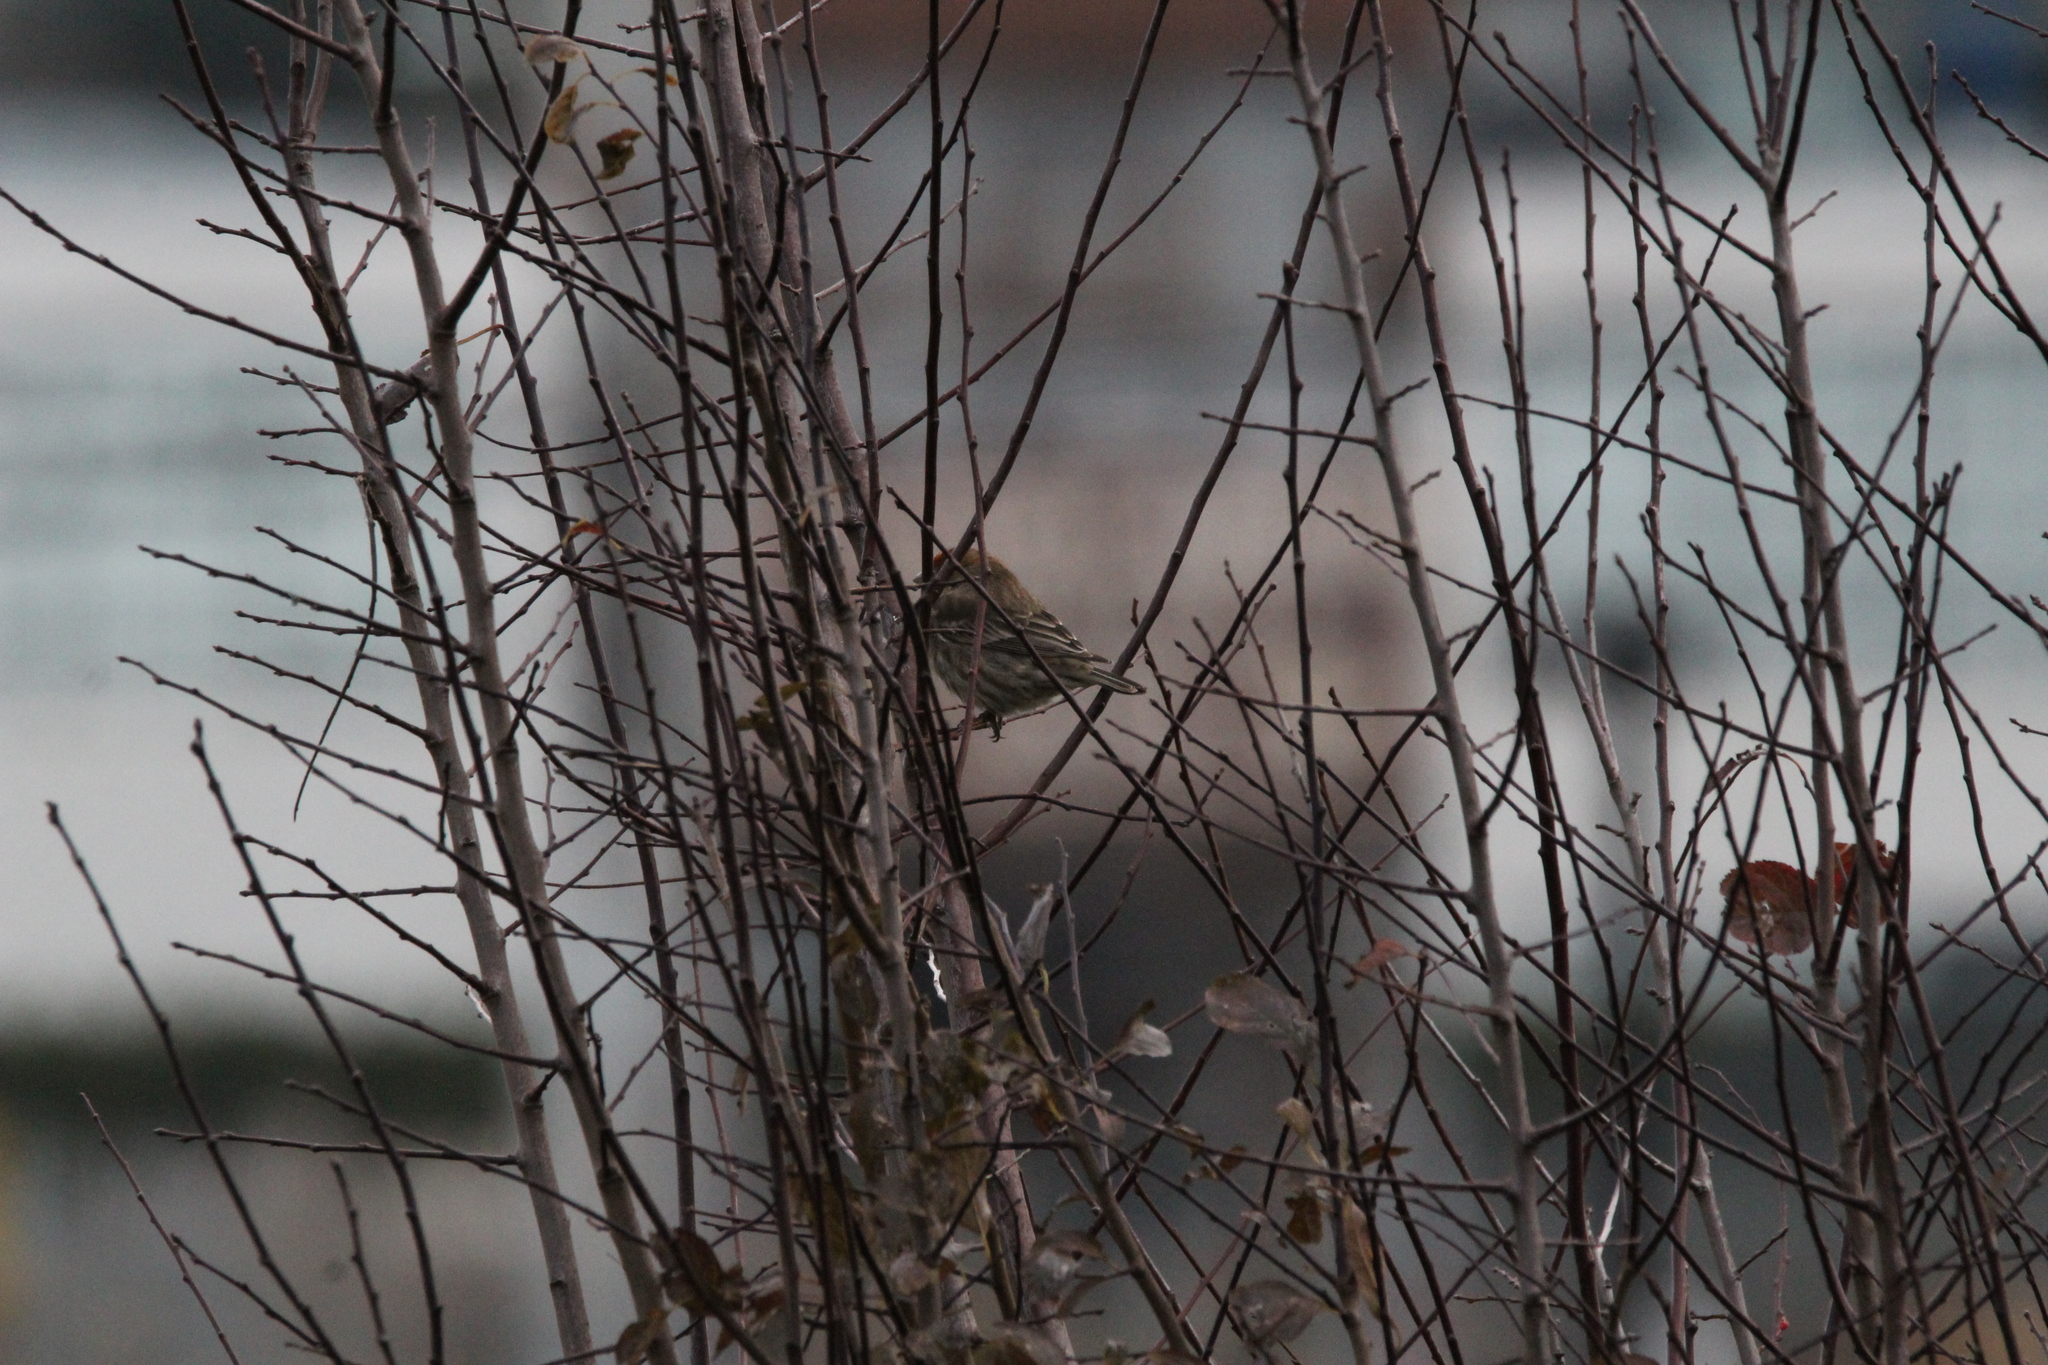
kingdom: Animalia
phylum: Chordata
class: Aves
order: Passeriformes
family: Fringillidae
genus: Haemorhous
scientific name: Haemorhous mexicanus
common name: House finch
